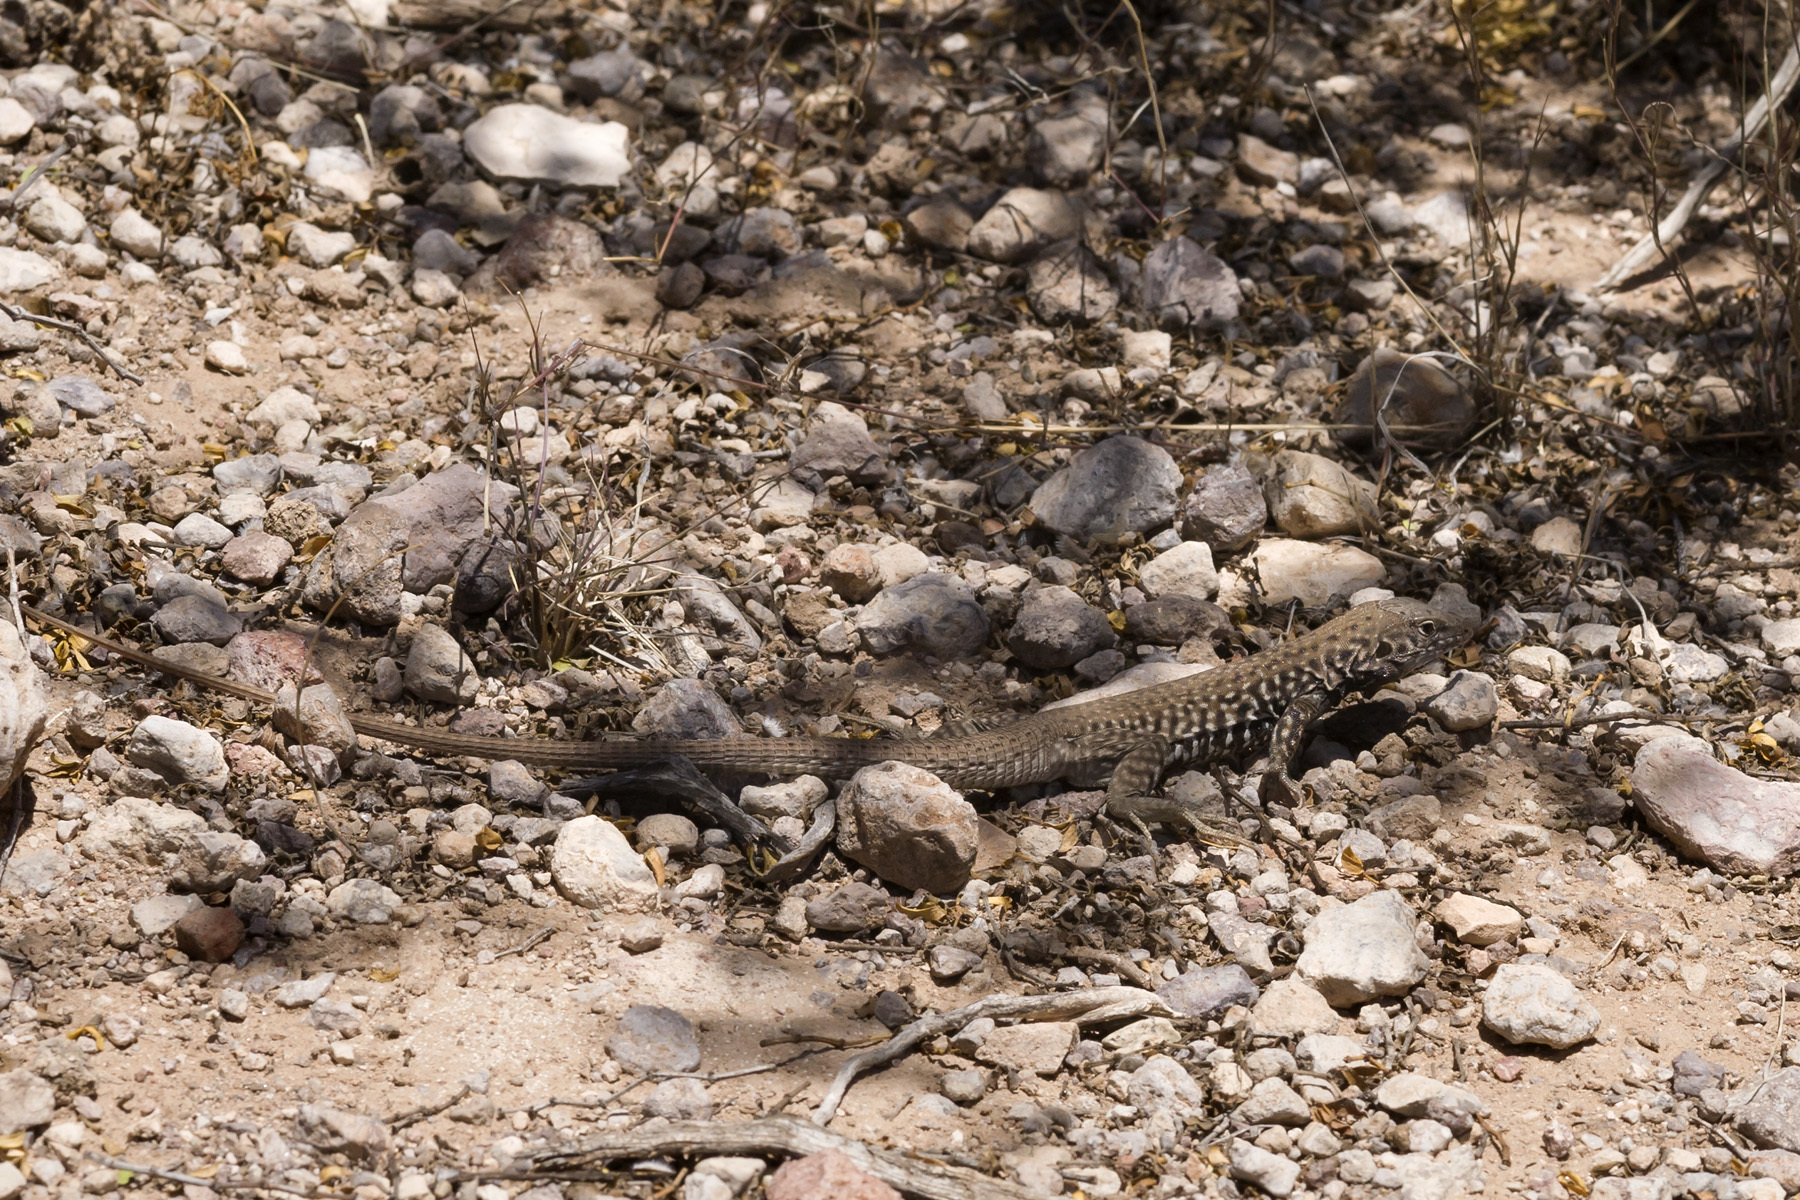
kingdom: Animalia
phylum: Chordata
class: Squamata
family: Teiidae
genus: Aspidoscelis
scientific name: Aspidoscelis tigris
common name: Tiger whiptail
